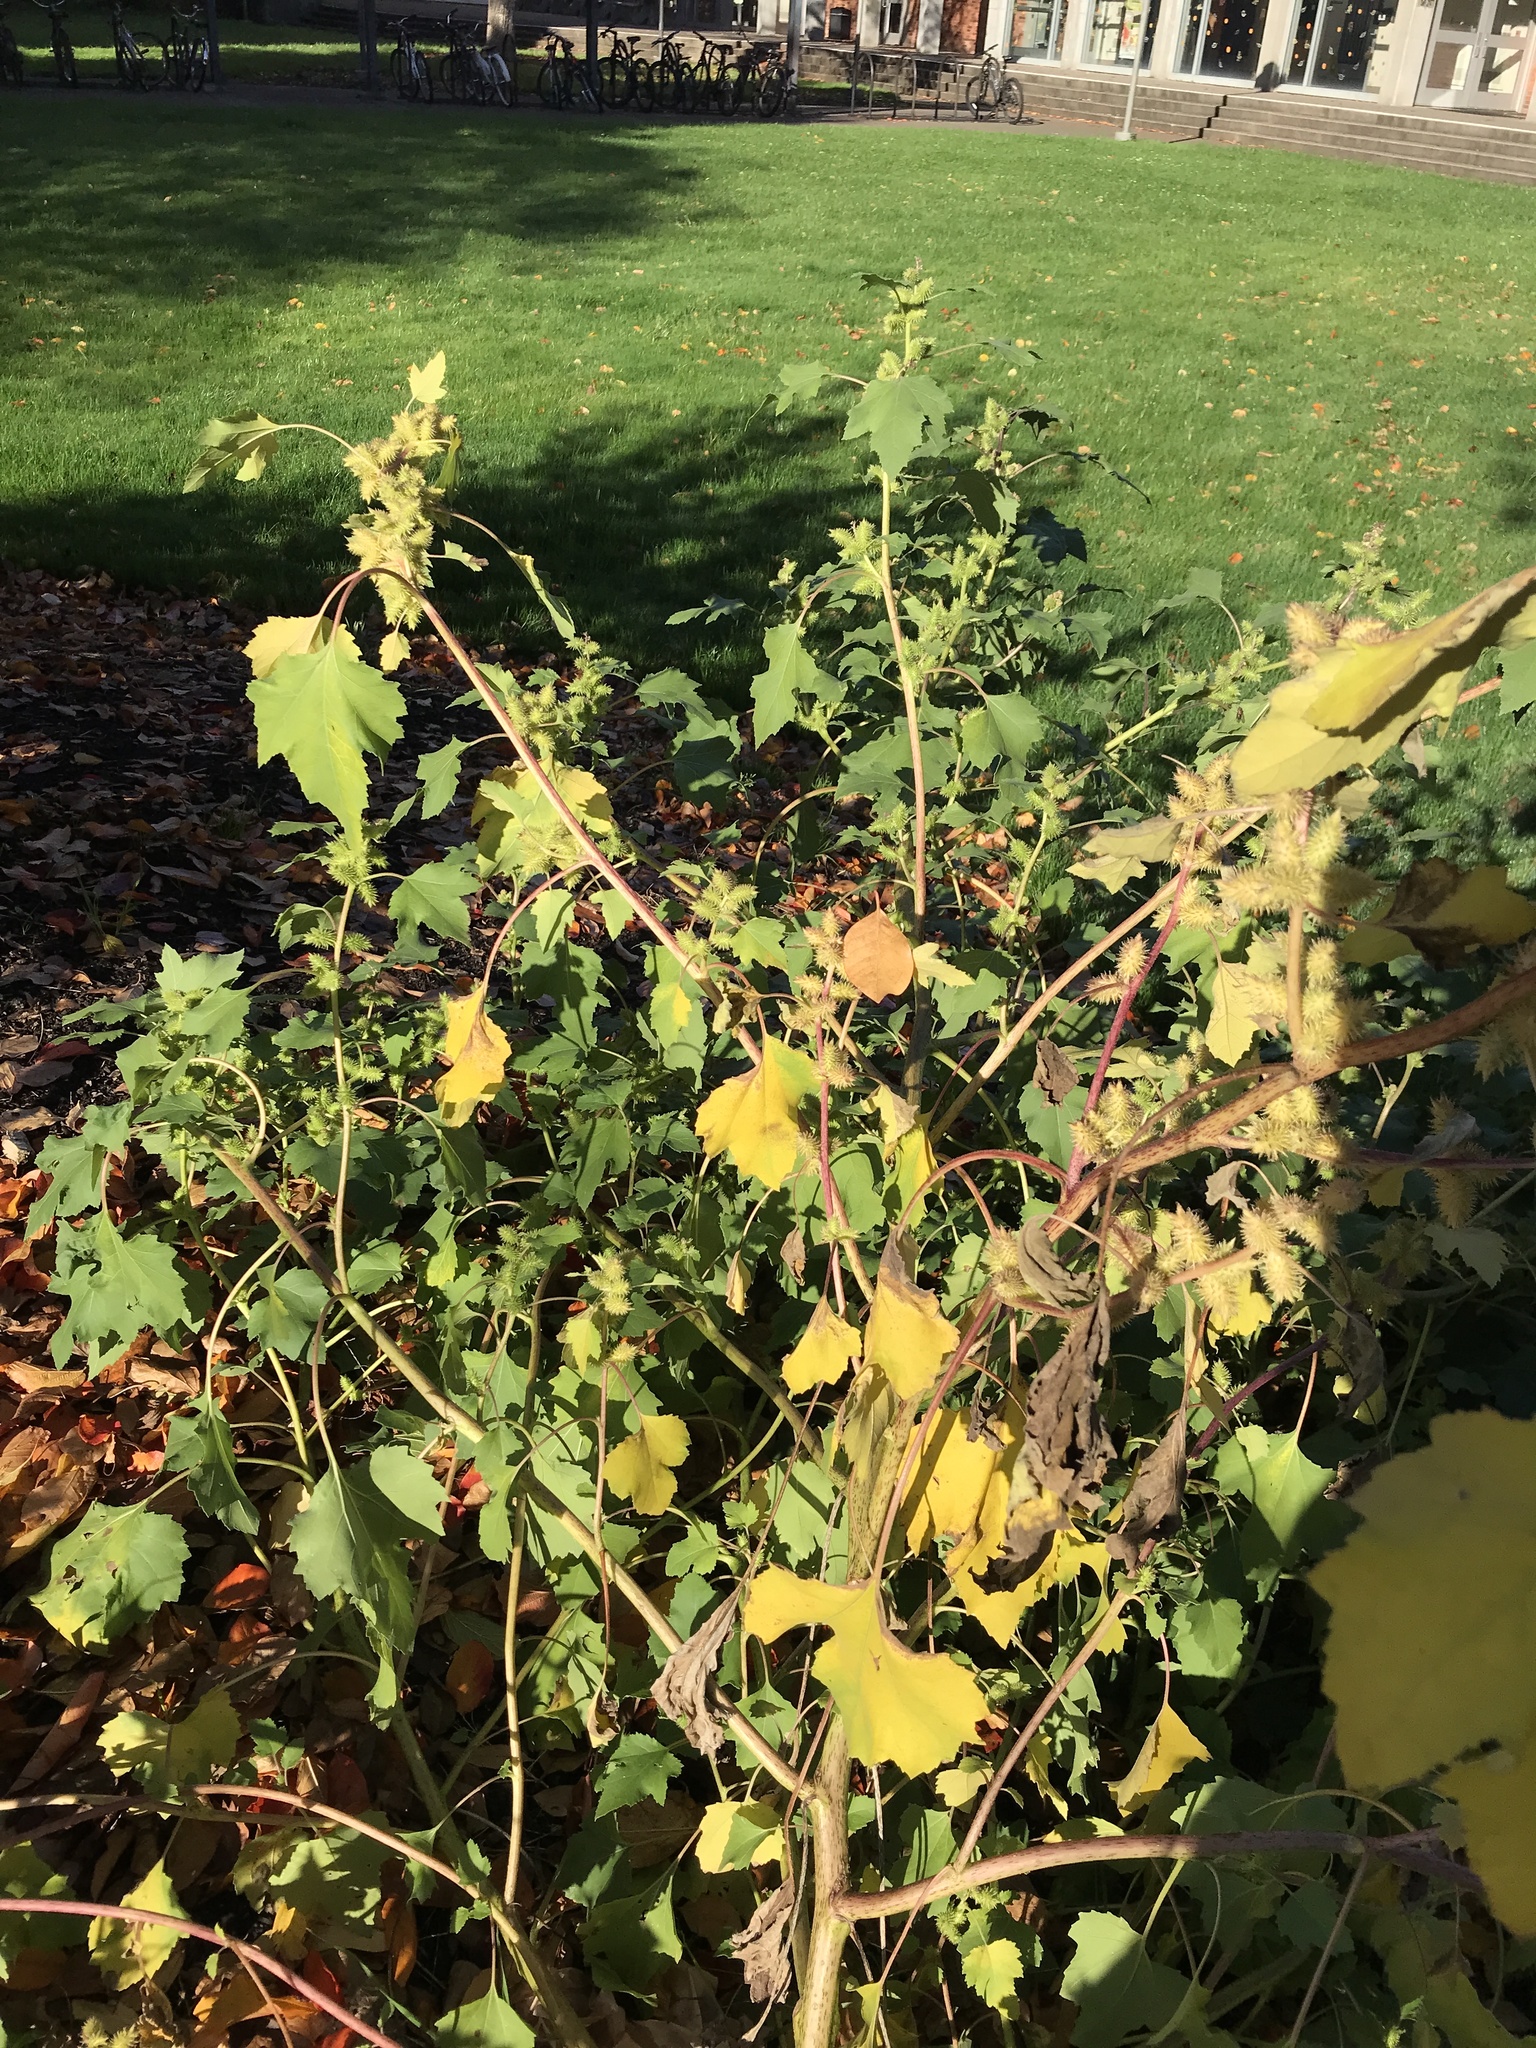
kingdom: Plantae
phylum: Tracheophyta
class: Magnoliopsida
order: Asterales
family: Asteraceae
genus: Xanthium
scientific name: Xanthium strumarium
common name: Rough cocklebur
